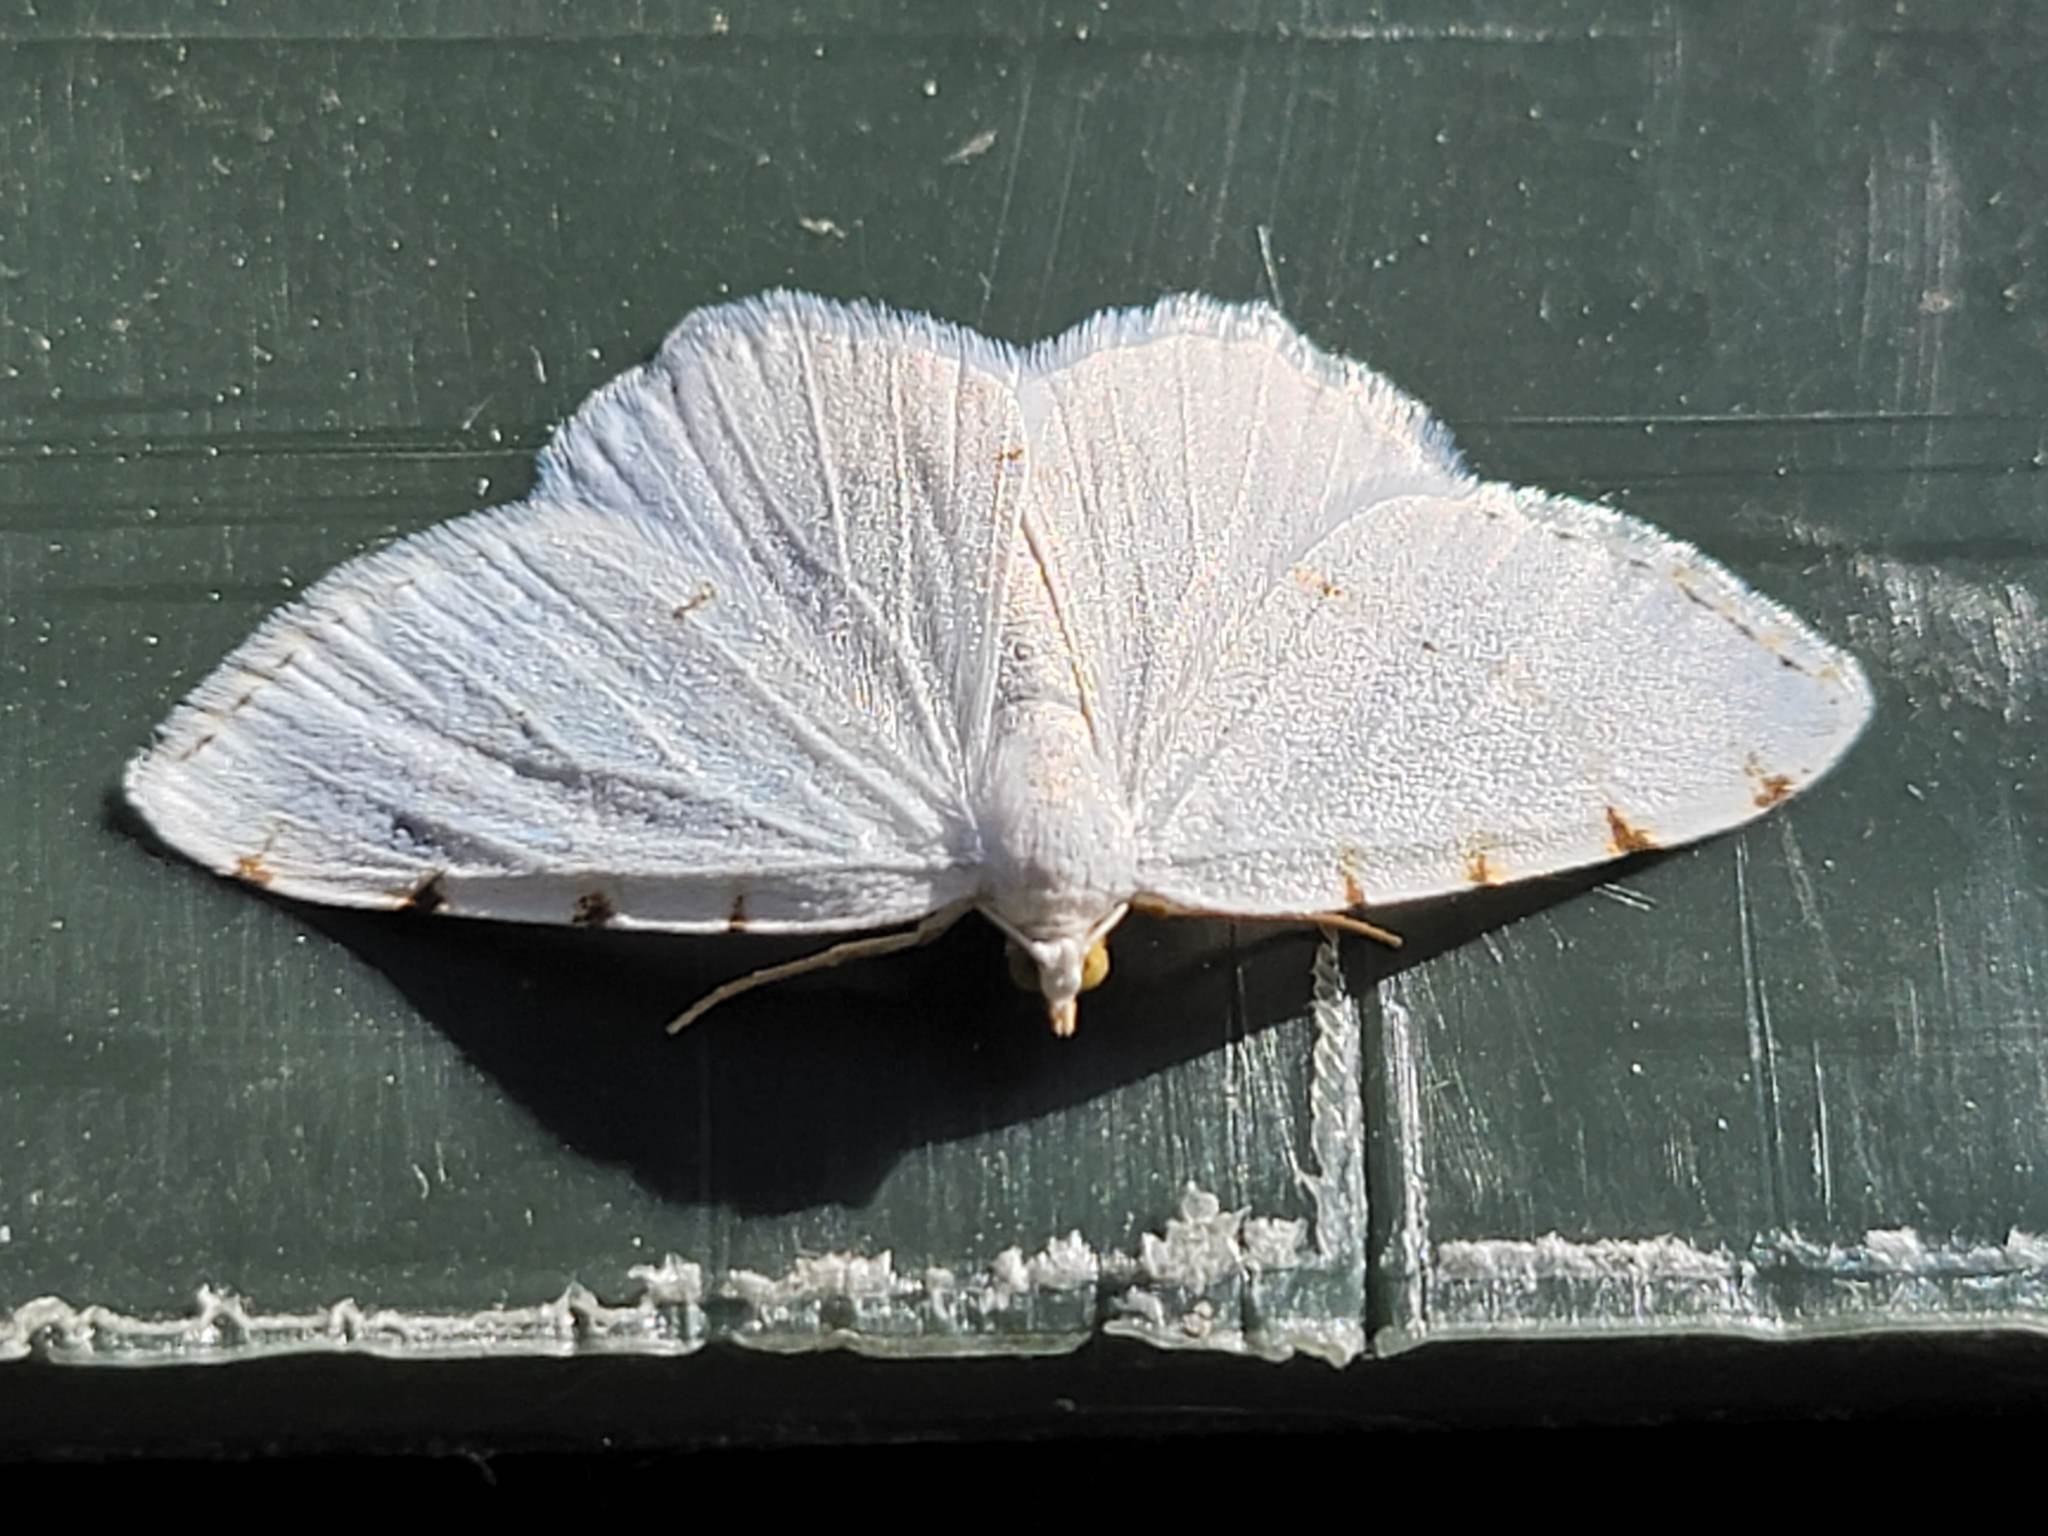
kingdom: Animalia
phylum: Arthropoda
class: Insecta
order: Lepidoptera
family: Geometridae
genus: Macaria
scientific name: Macaria pustularia
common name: Lesser maple spanworm moth
